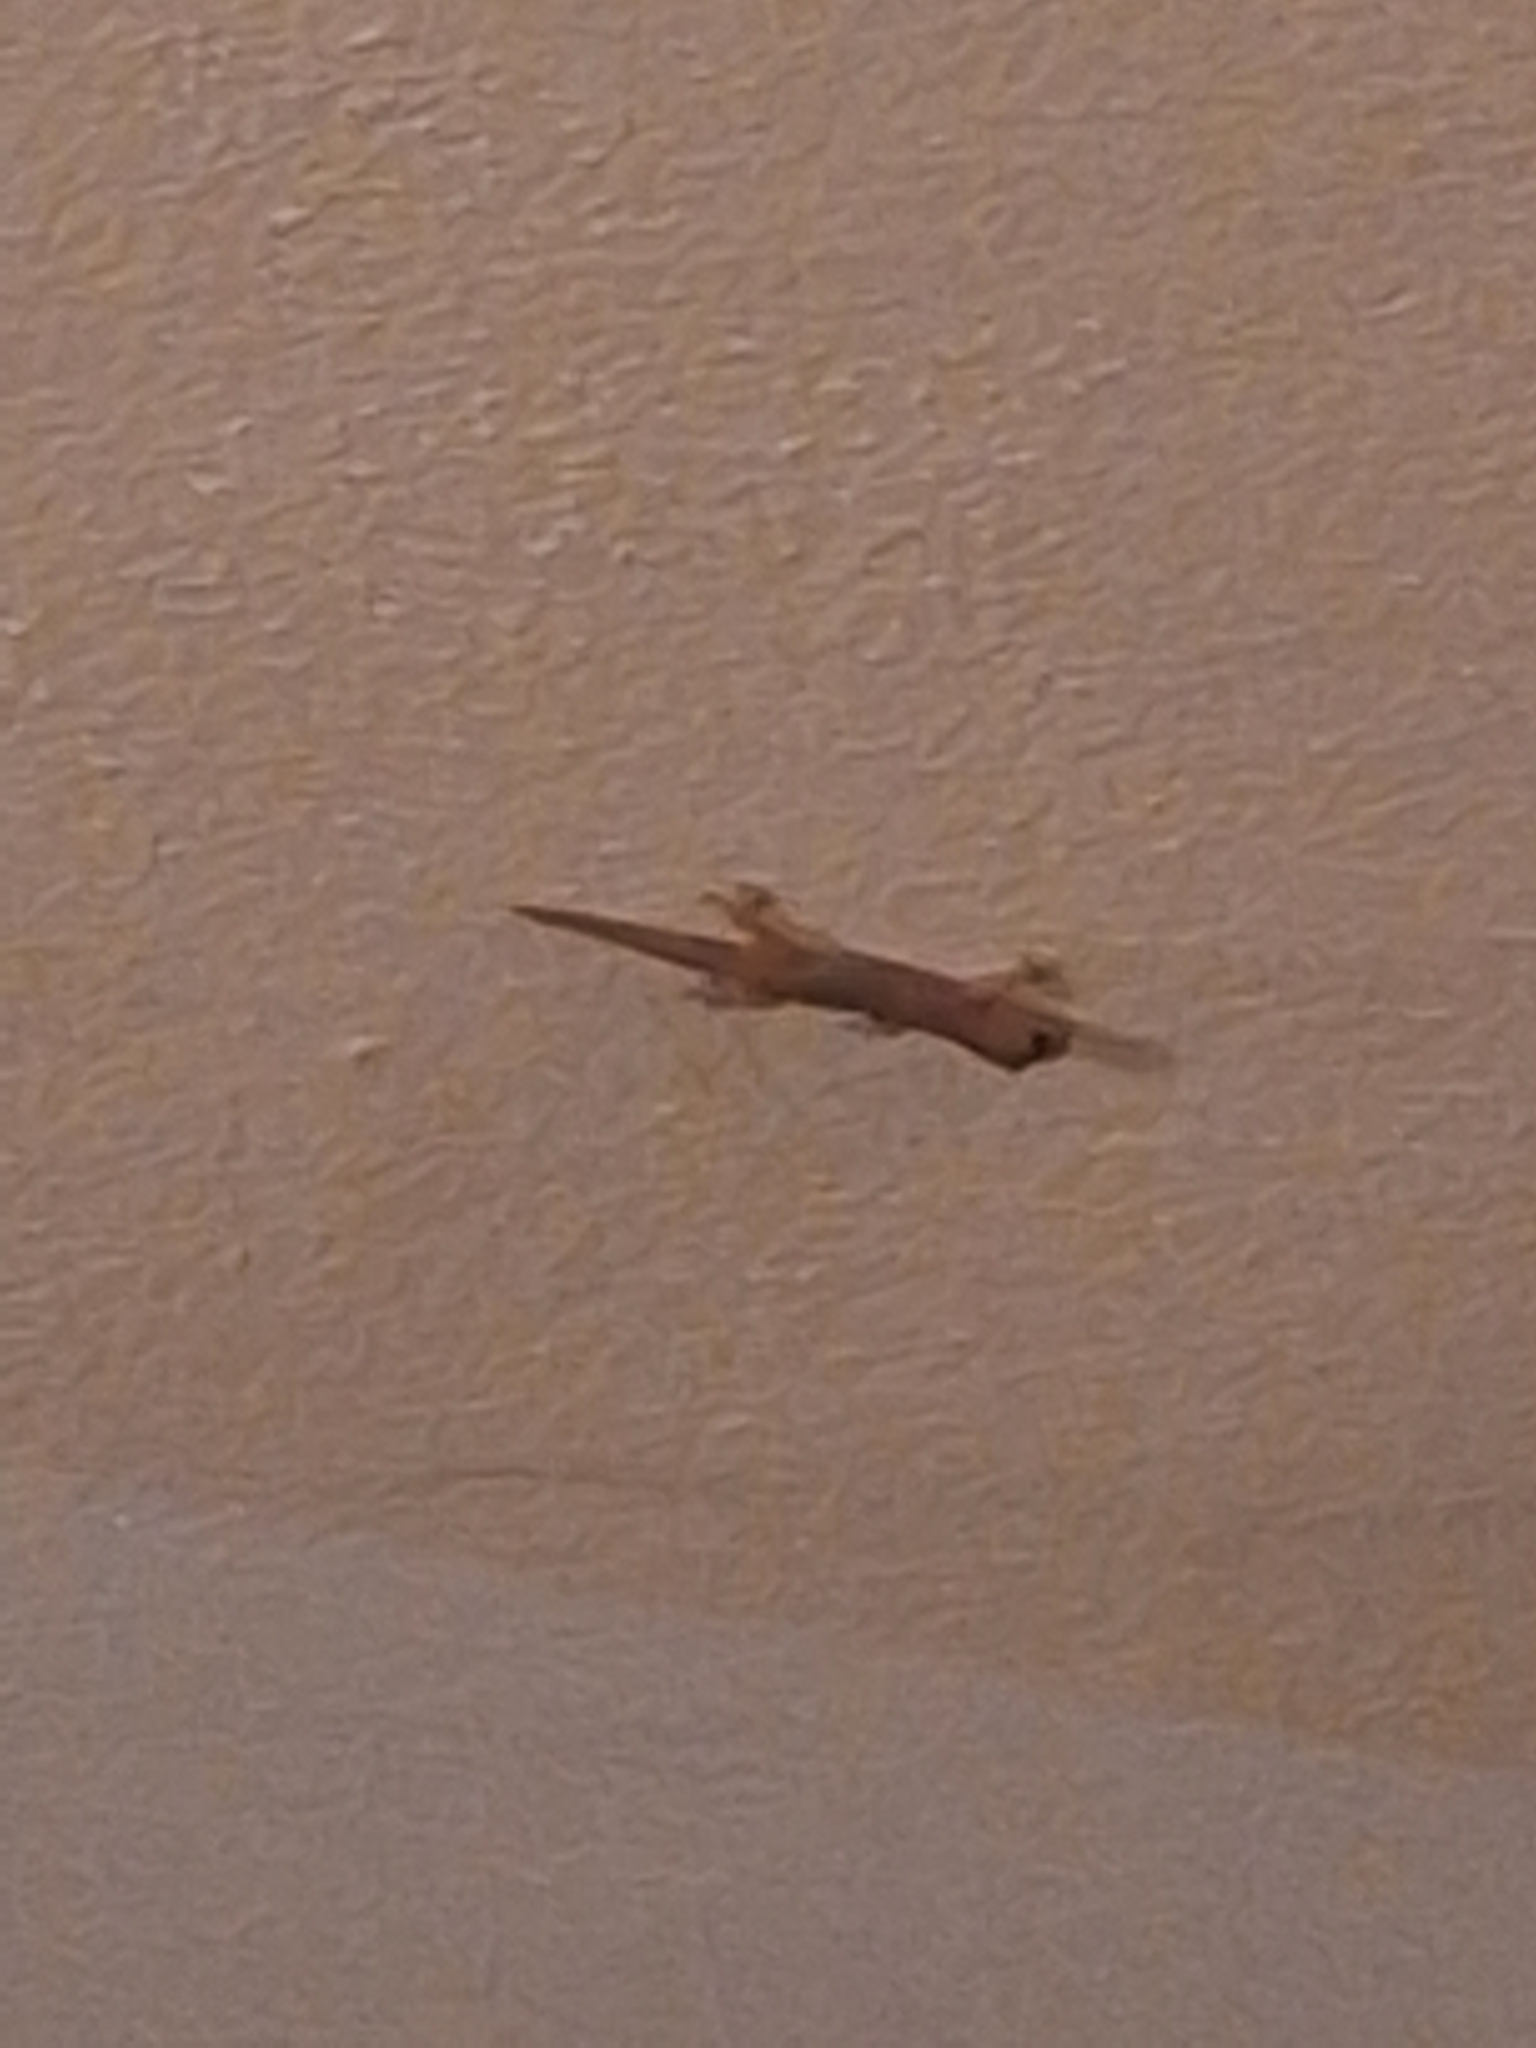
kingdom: Animalia
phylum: Chordata
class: Squamata
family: Gekkonidae
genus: Hemidactylus
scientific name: Hemidactylus frenatus
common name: Common house gecko
